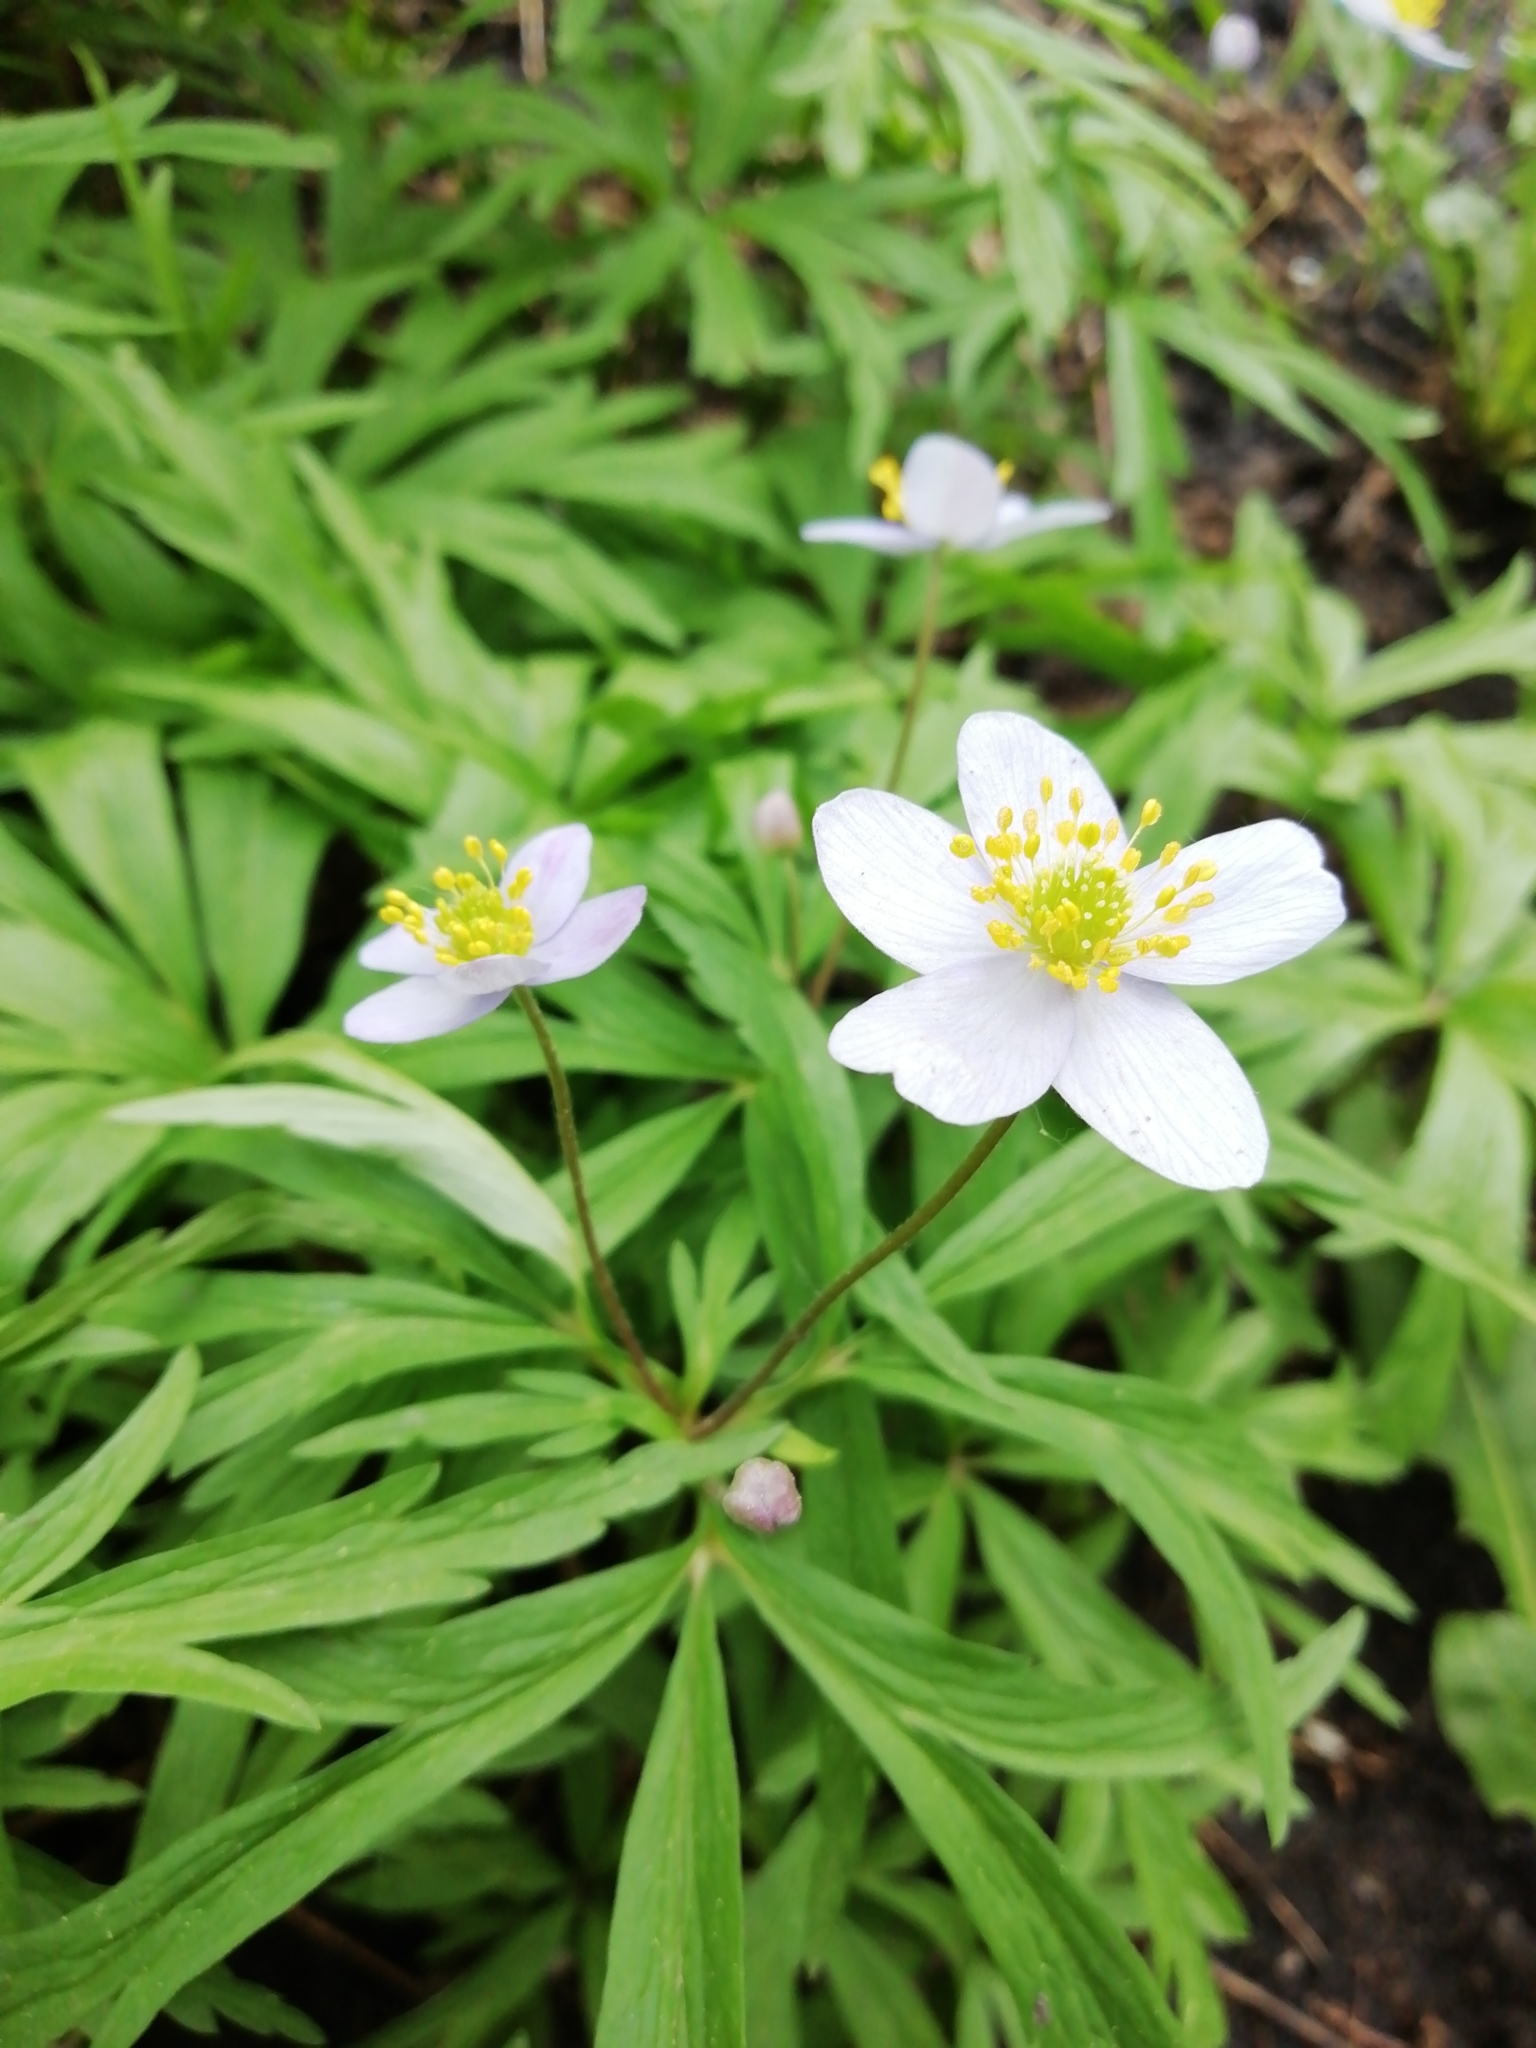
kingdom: Plantae
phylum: Tracheophyta
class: Magnoliopsida
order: Ranunculales
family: Ranunculaceae
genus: Anemone
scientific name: Anemone caerulea
